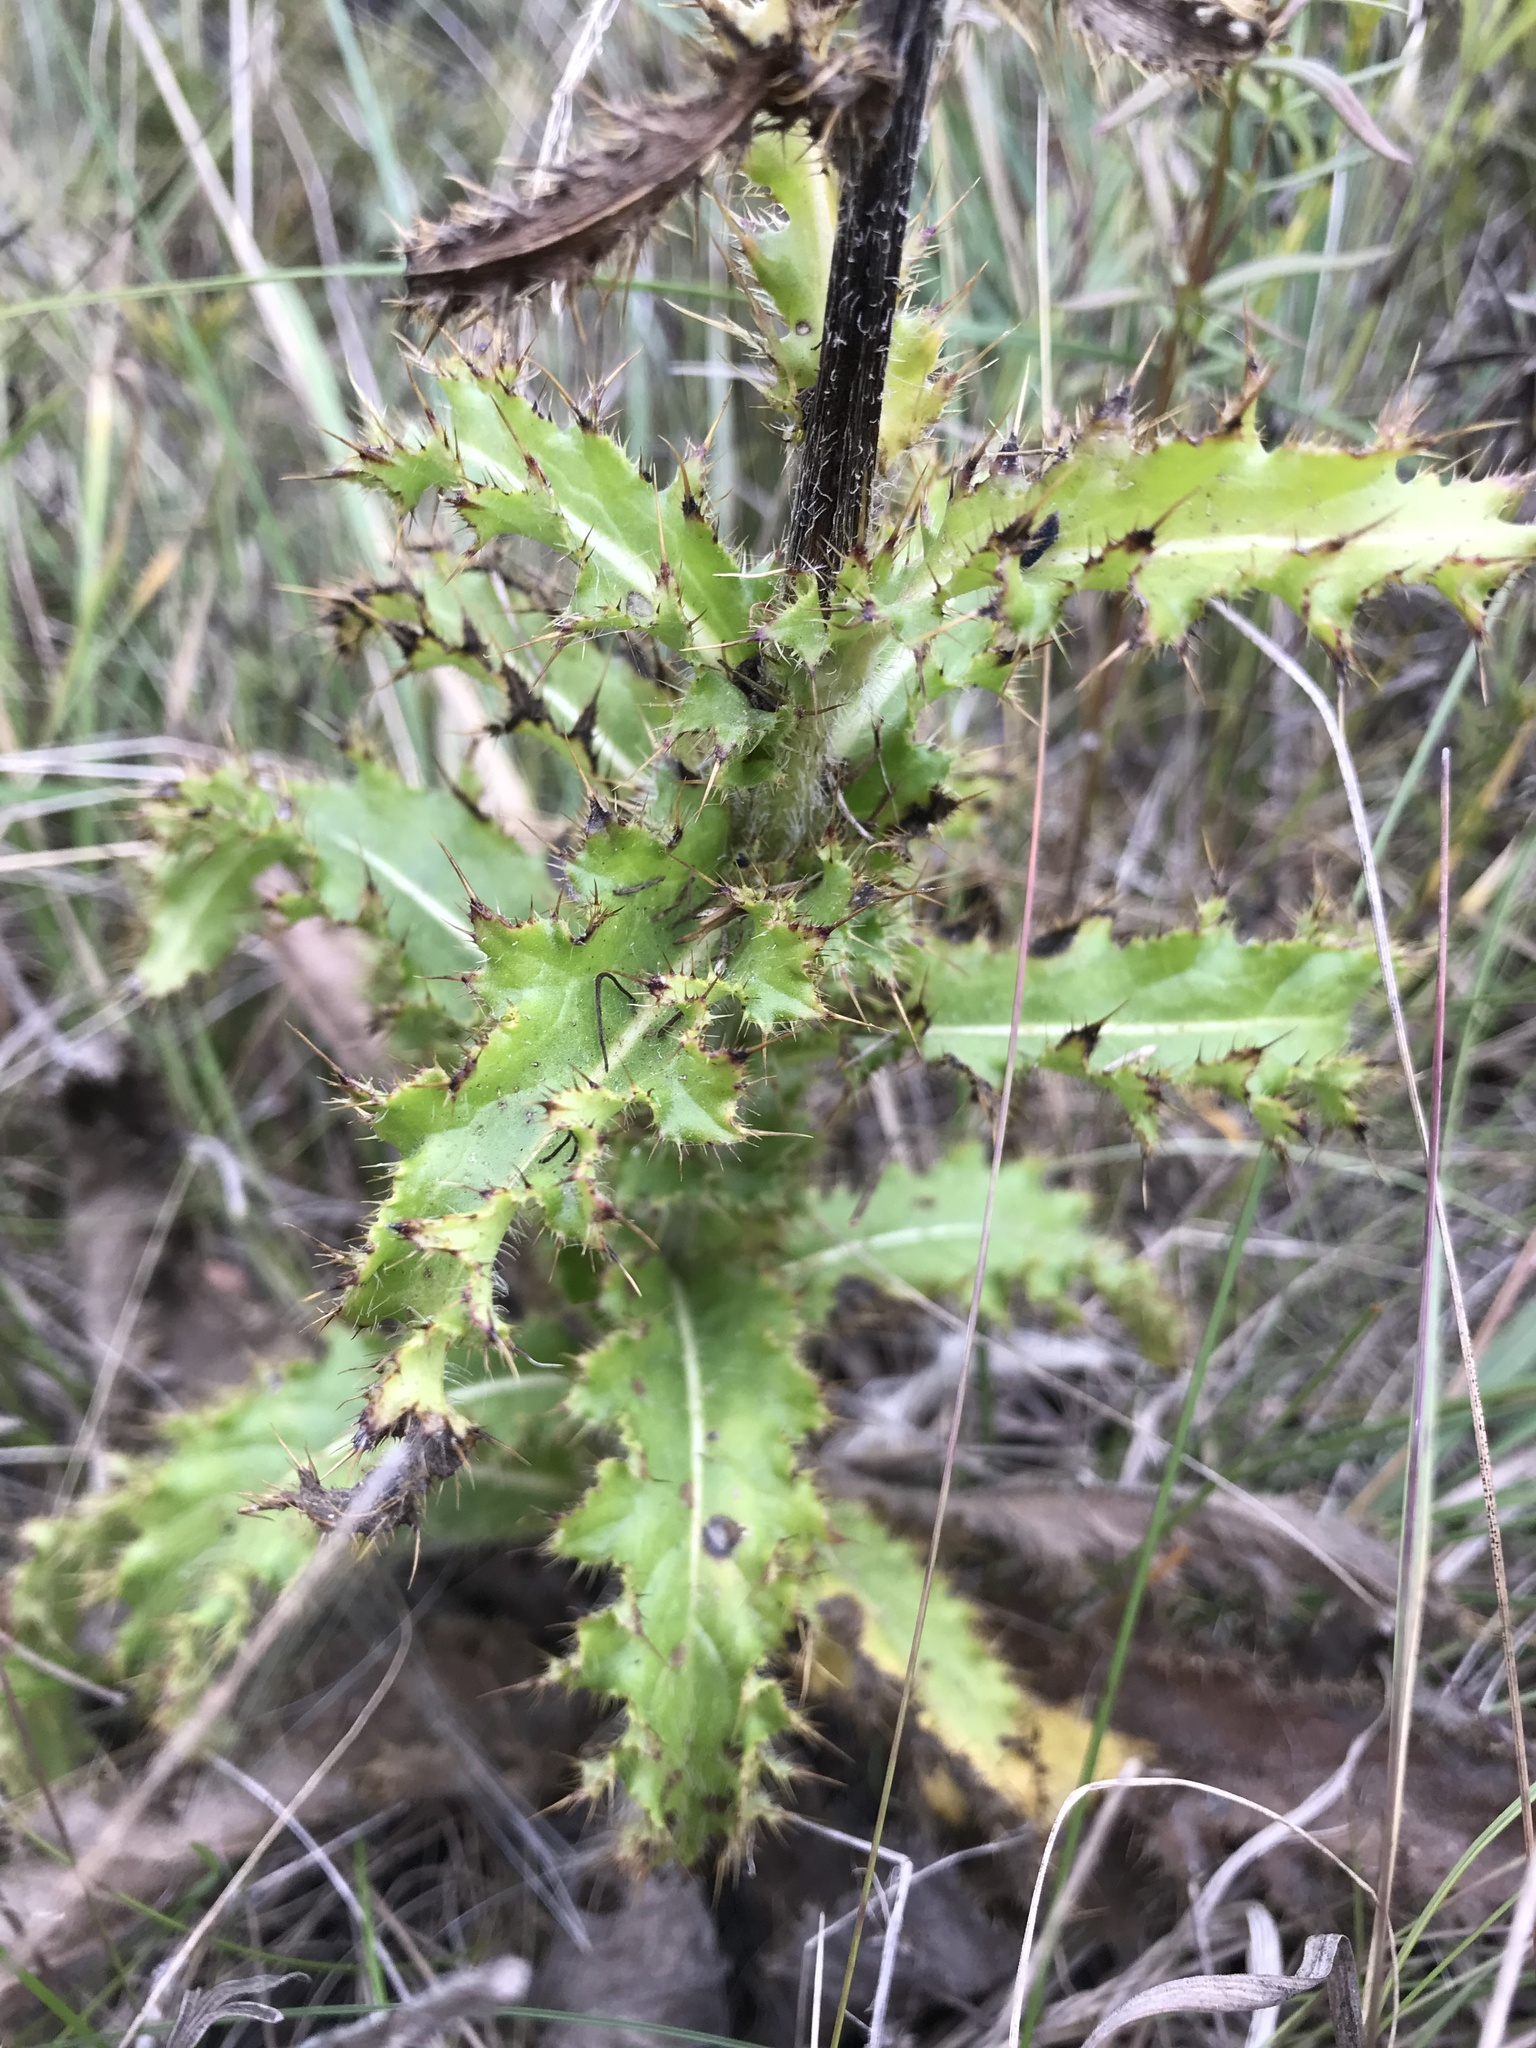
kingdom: Plantae
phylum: Tracheophyta
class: Magnoliopsida
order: Asterales
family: Asteraceae
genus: Cirsium
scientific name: Cirsium pumilum
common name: Pasture thistle
